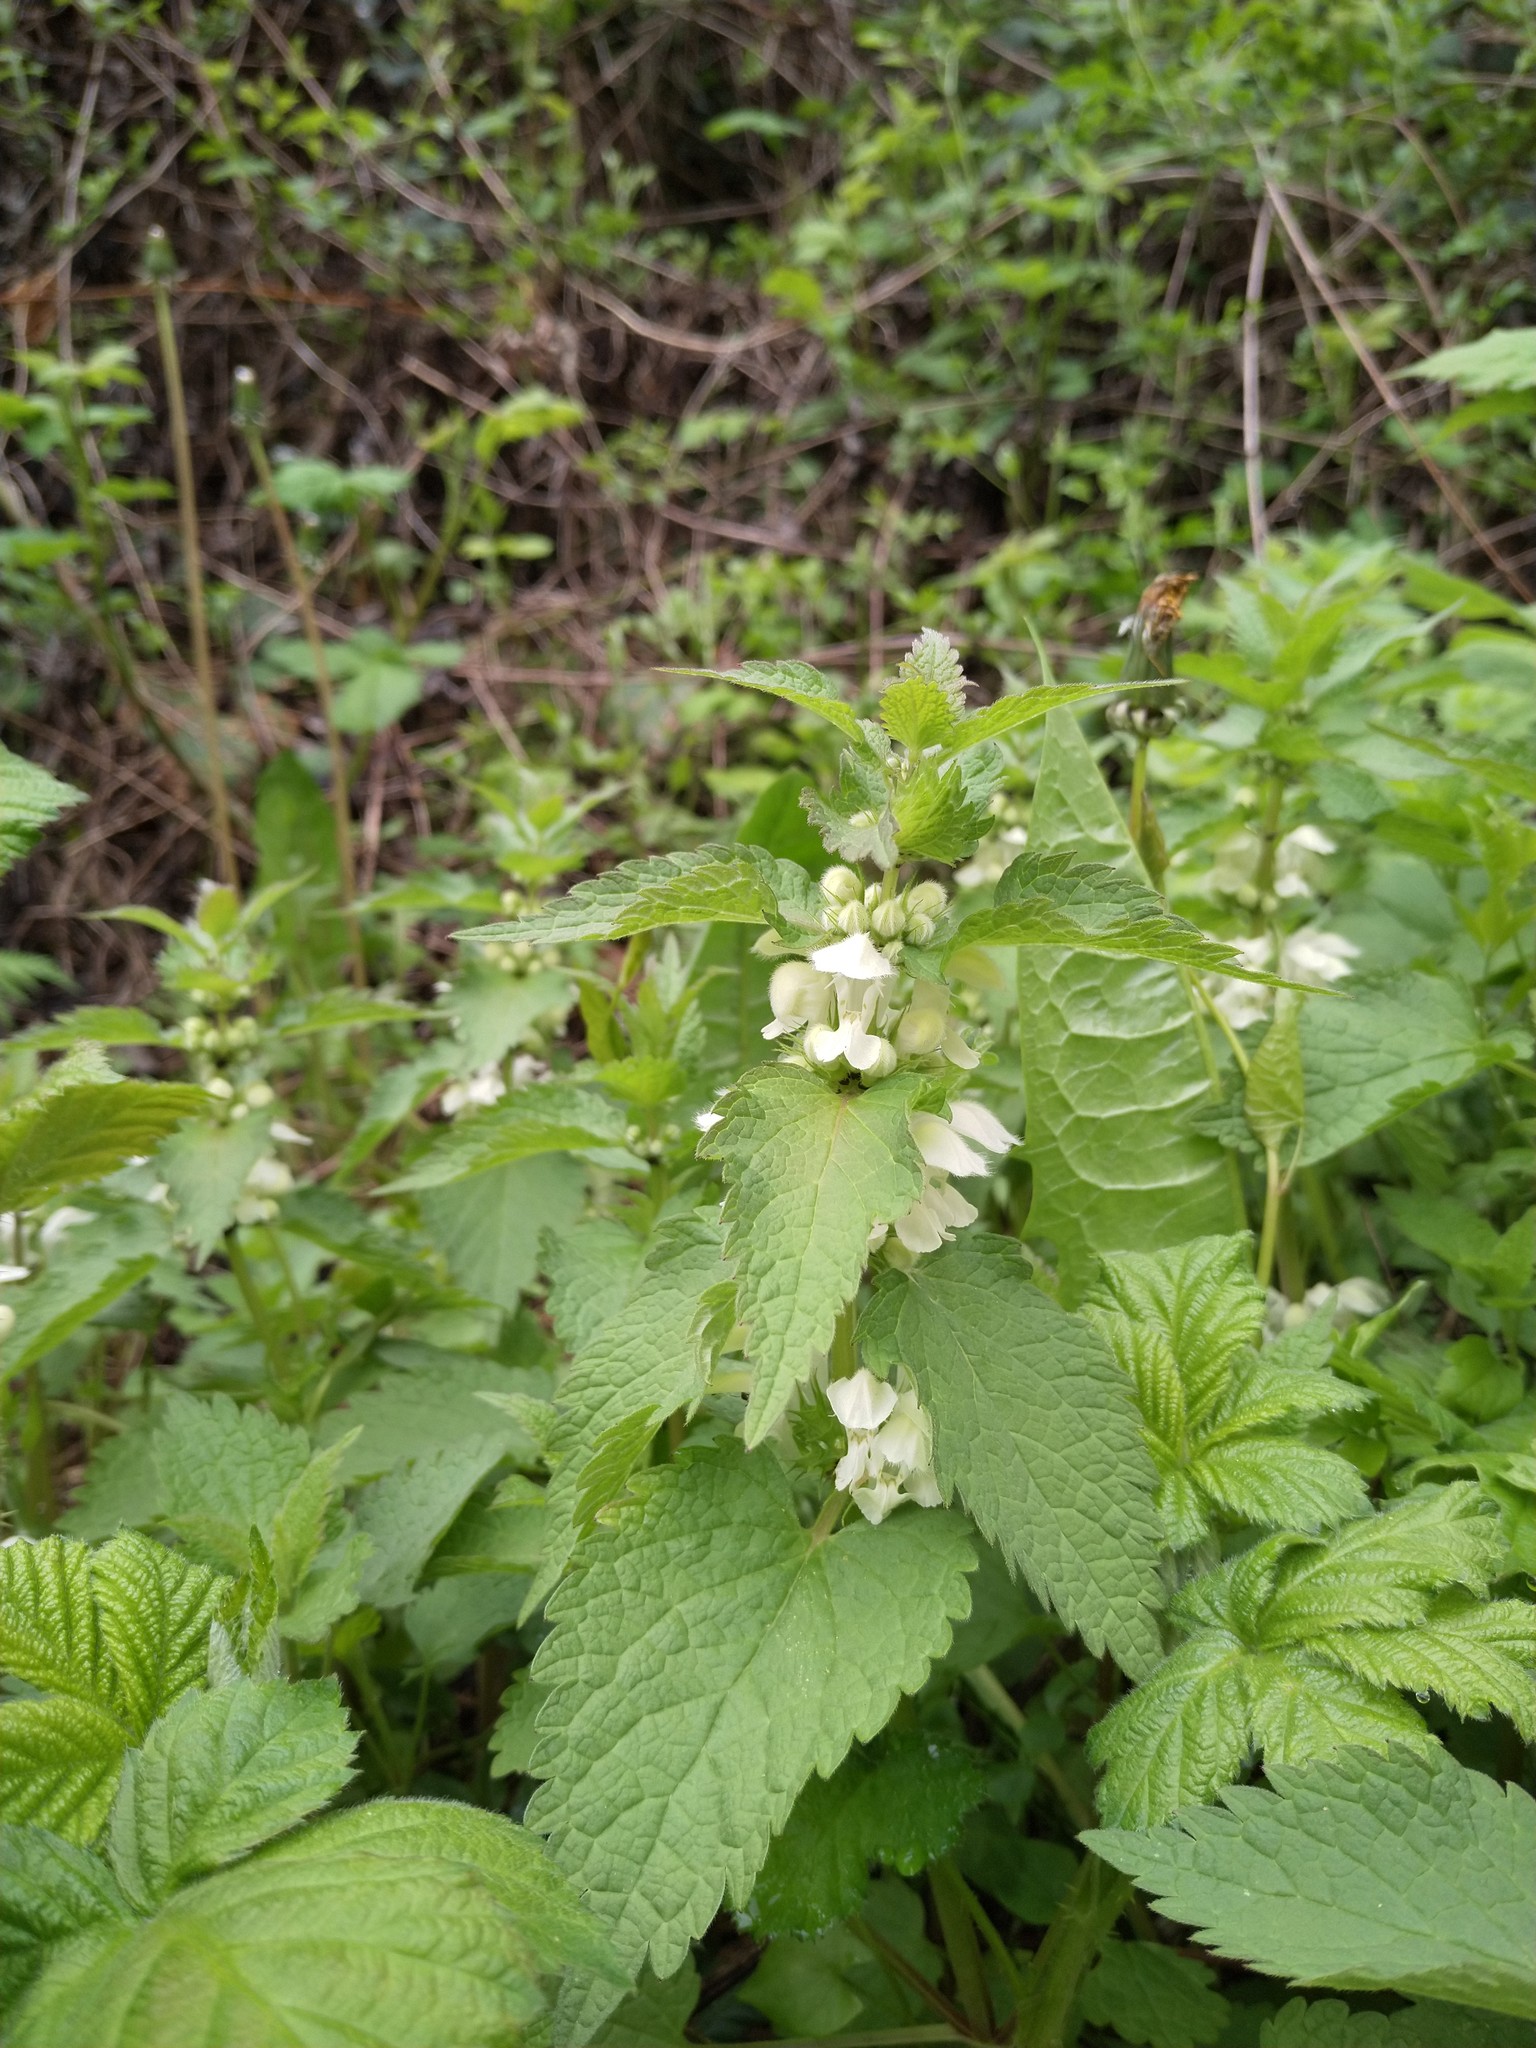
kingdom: Plantae
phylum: Tracheophyta
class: Magnoliopsida
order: Lamiales
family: Lamiaceae
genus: Lamium
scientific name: Lamium album
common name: White dead-nettle
